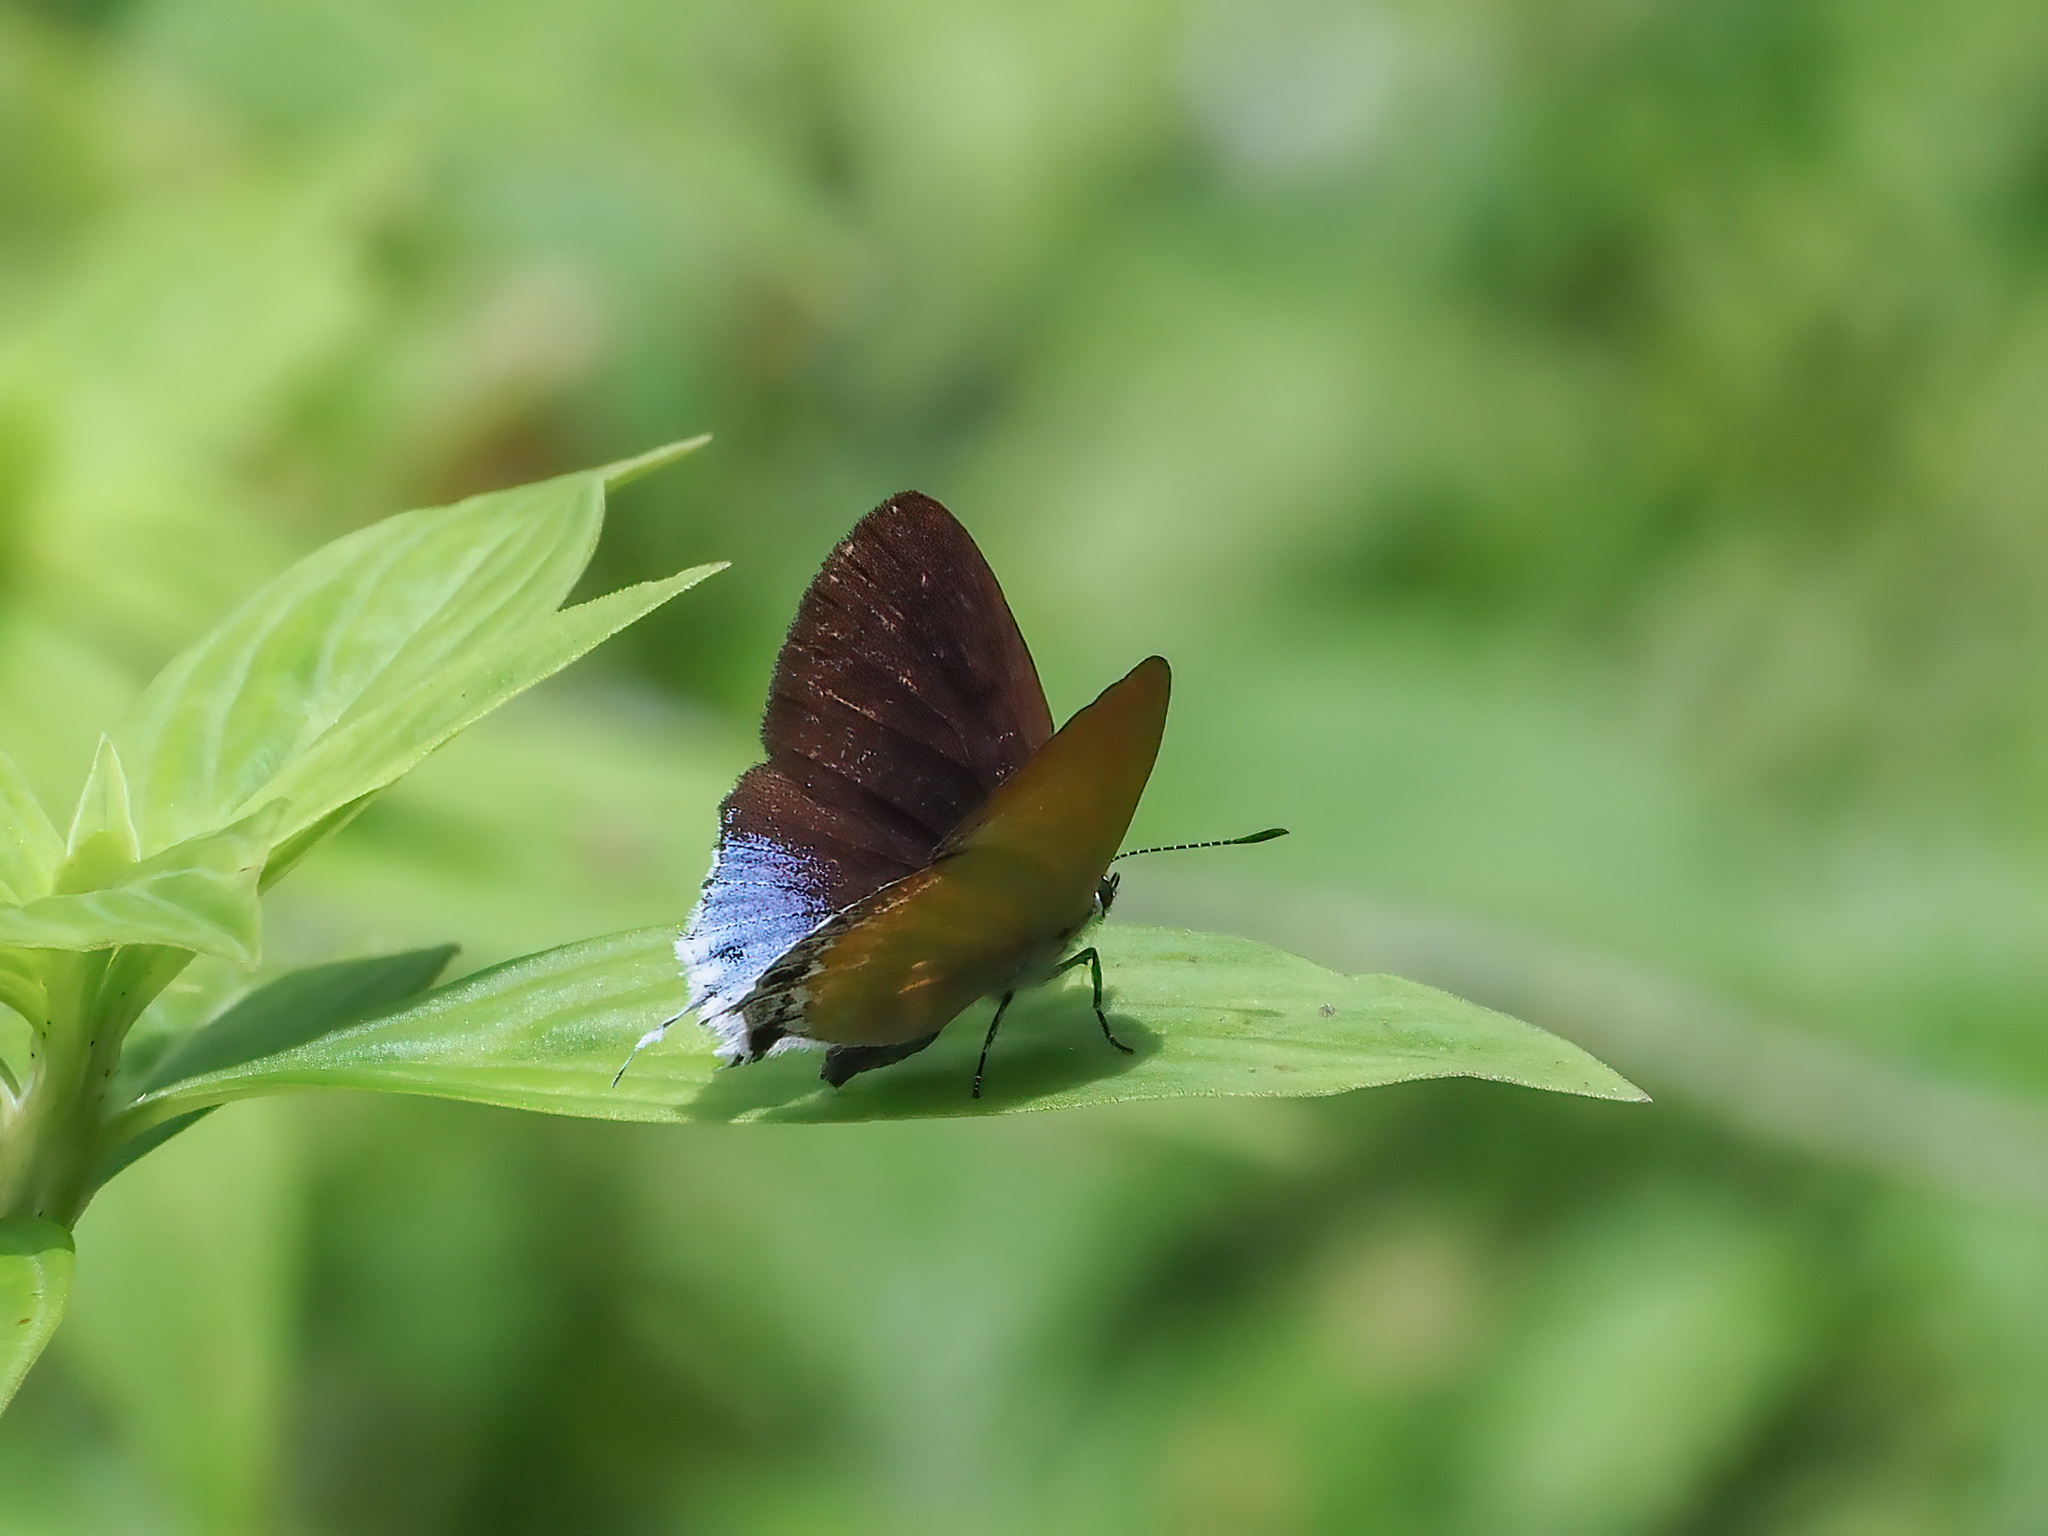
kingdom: Animalia
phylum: Arthropoda
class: Insecta
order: Lepidoptera
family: Lycaenidae
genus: Heliophorus
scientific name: Heliophorus
